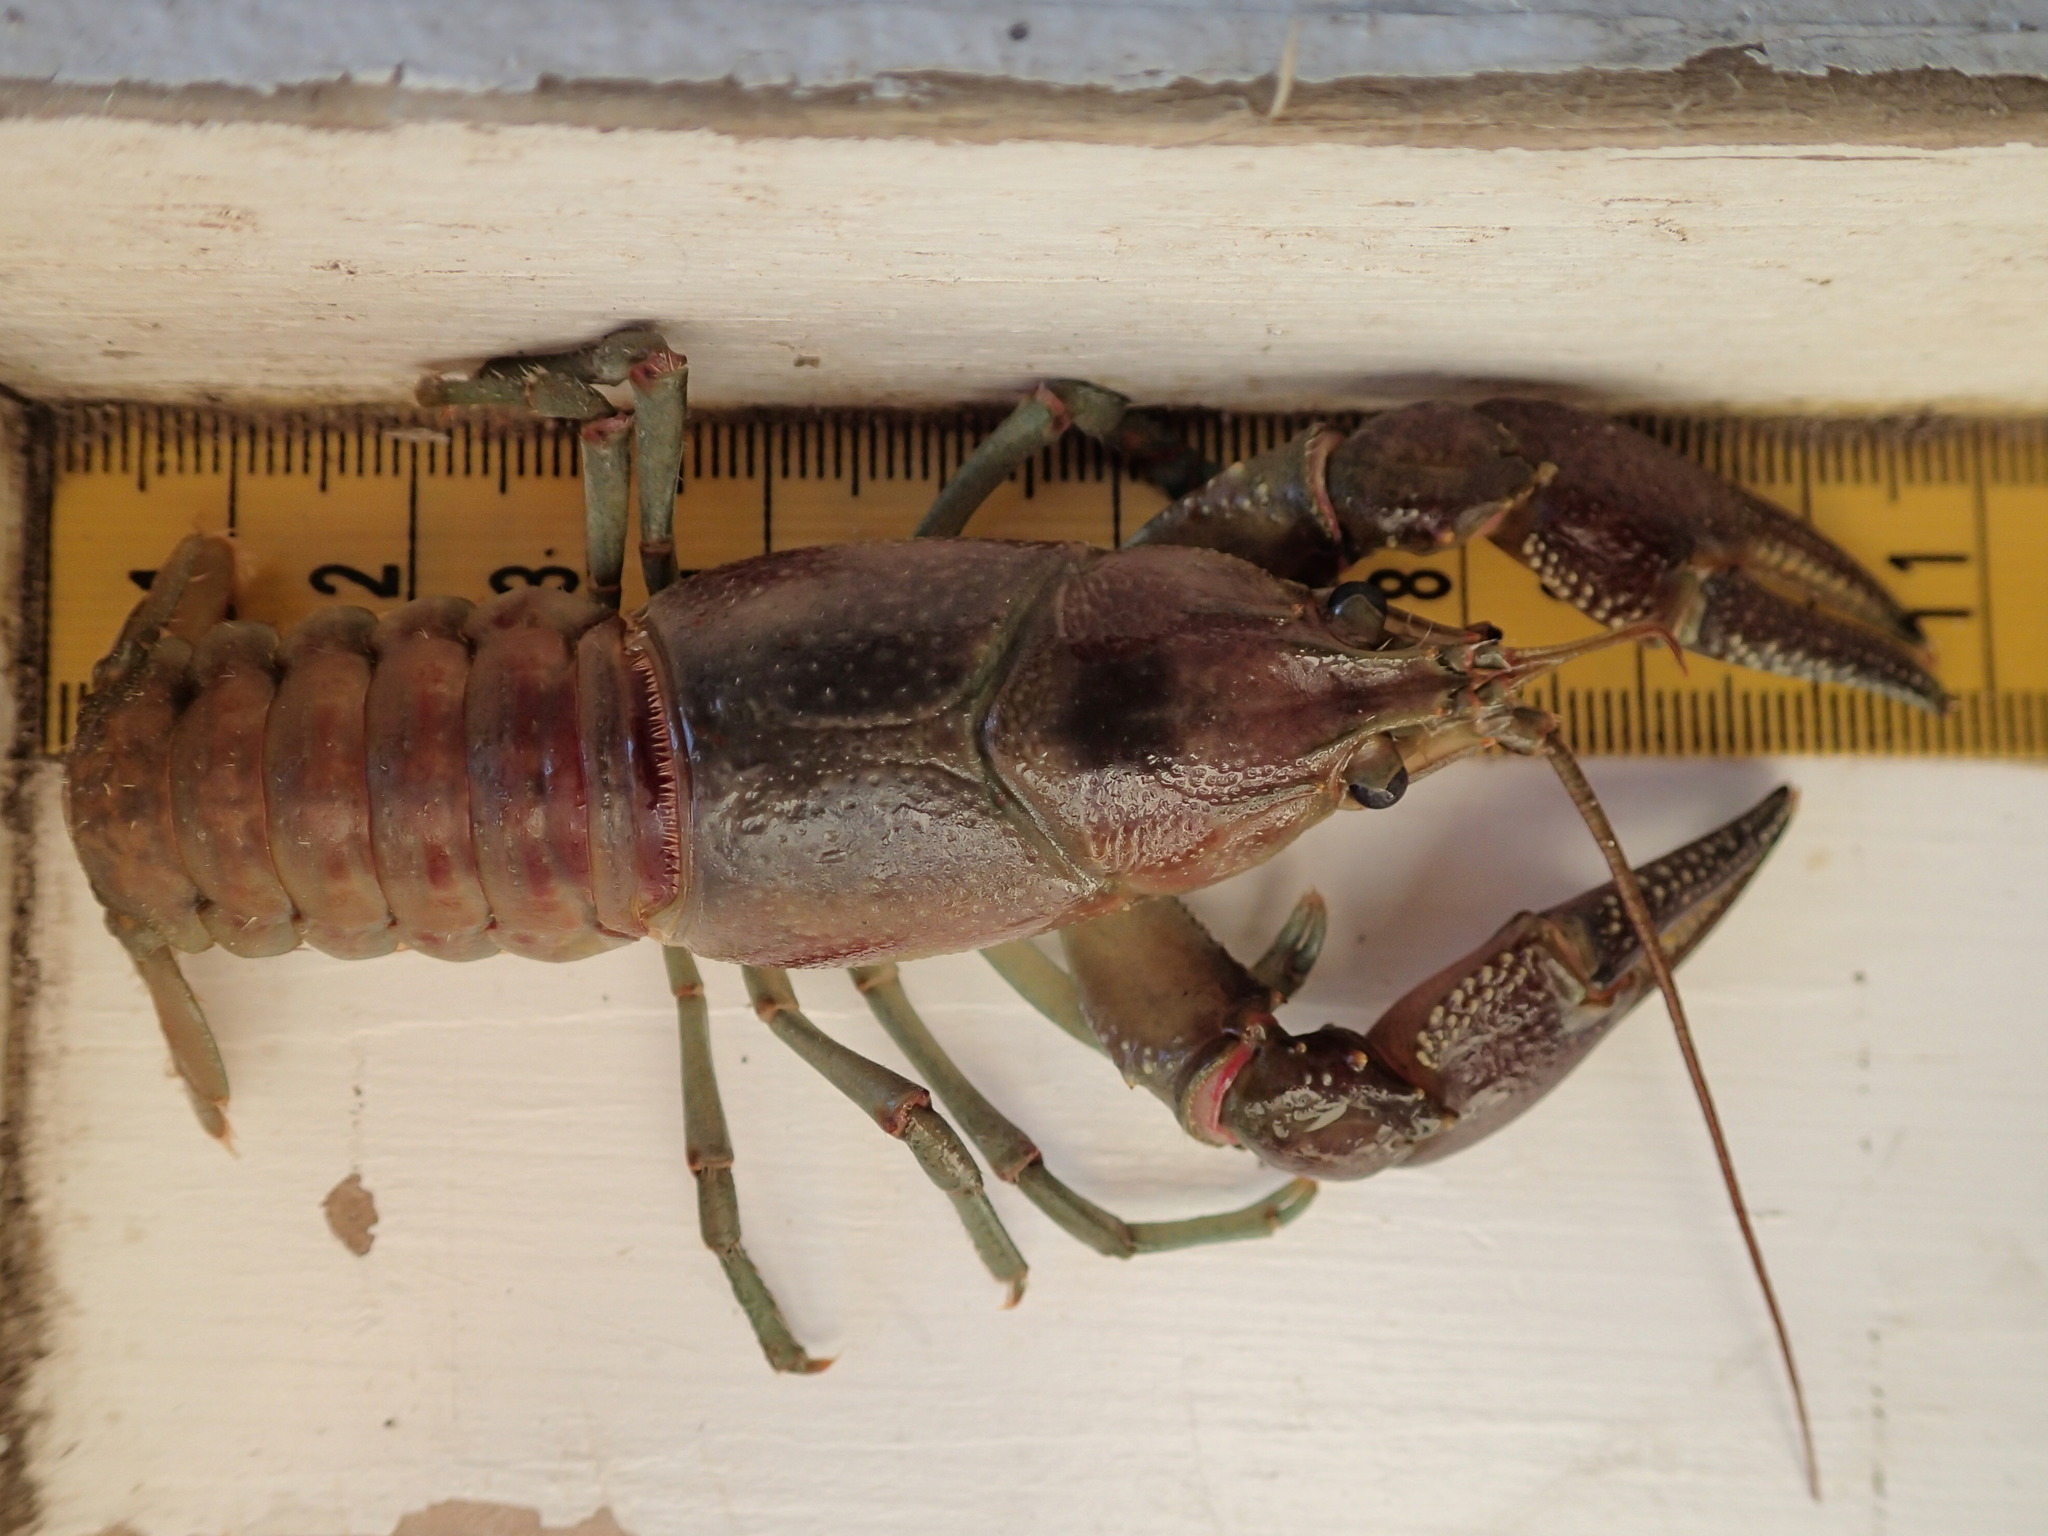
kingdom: Animalia
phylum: Arthropoda
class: Malacostraca
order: Decapoda
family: Cambaridae
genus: Faxonius
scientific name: Faxonius rusticus
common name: Rusty crayfish
